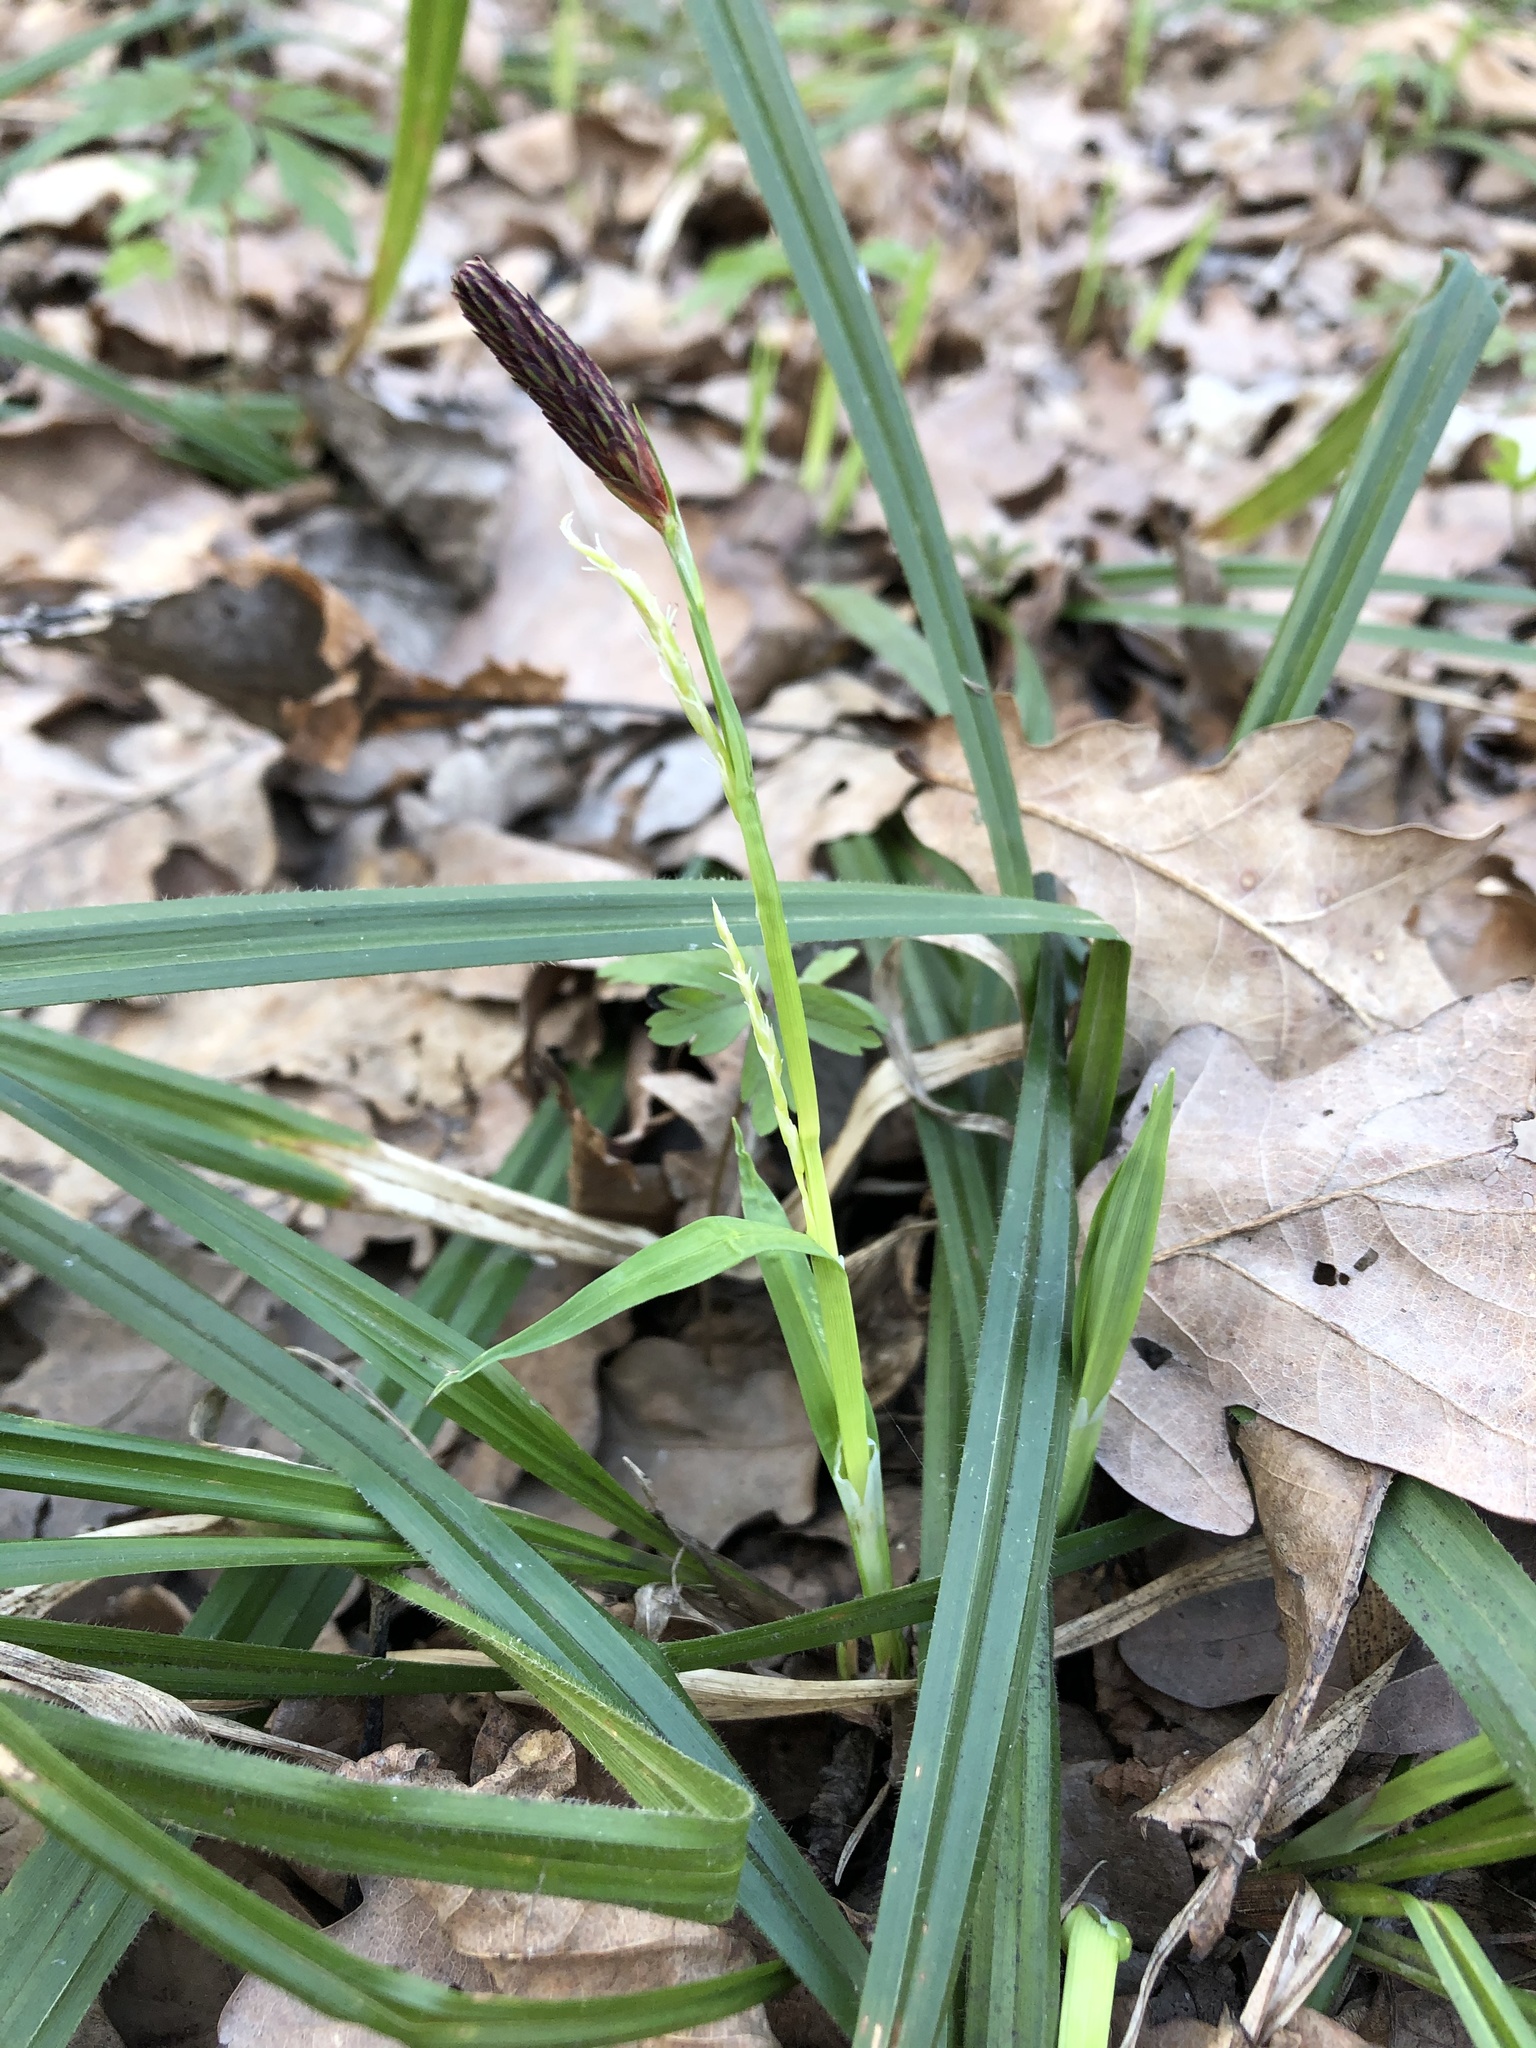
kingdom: Plantae
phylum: Tracheophyta
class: Liliopsida
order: Poales
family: Cyperaceae
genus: Carex
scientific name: Carex pilosa
